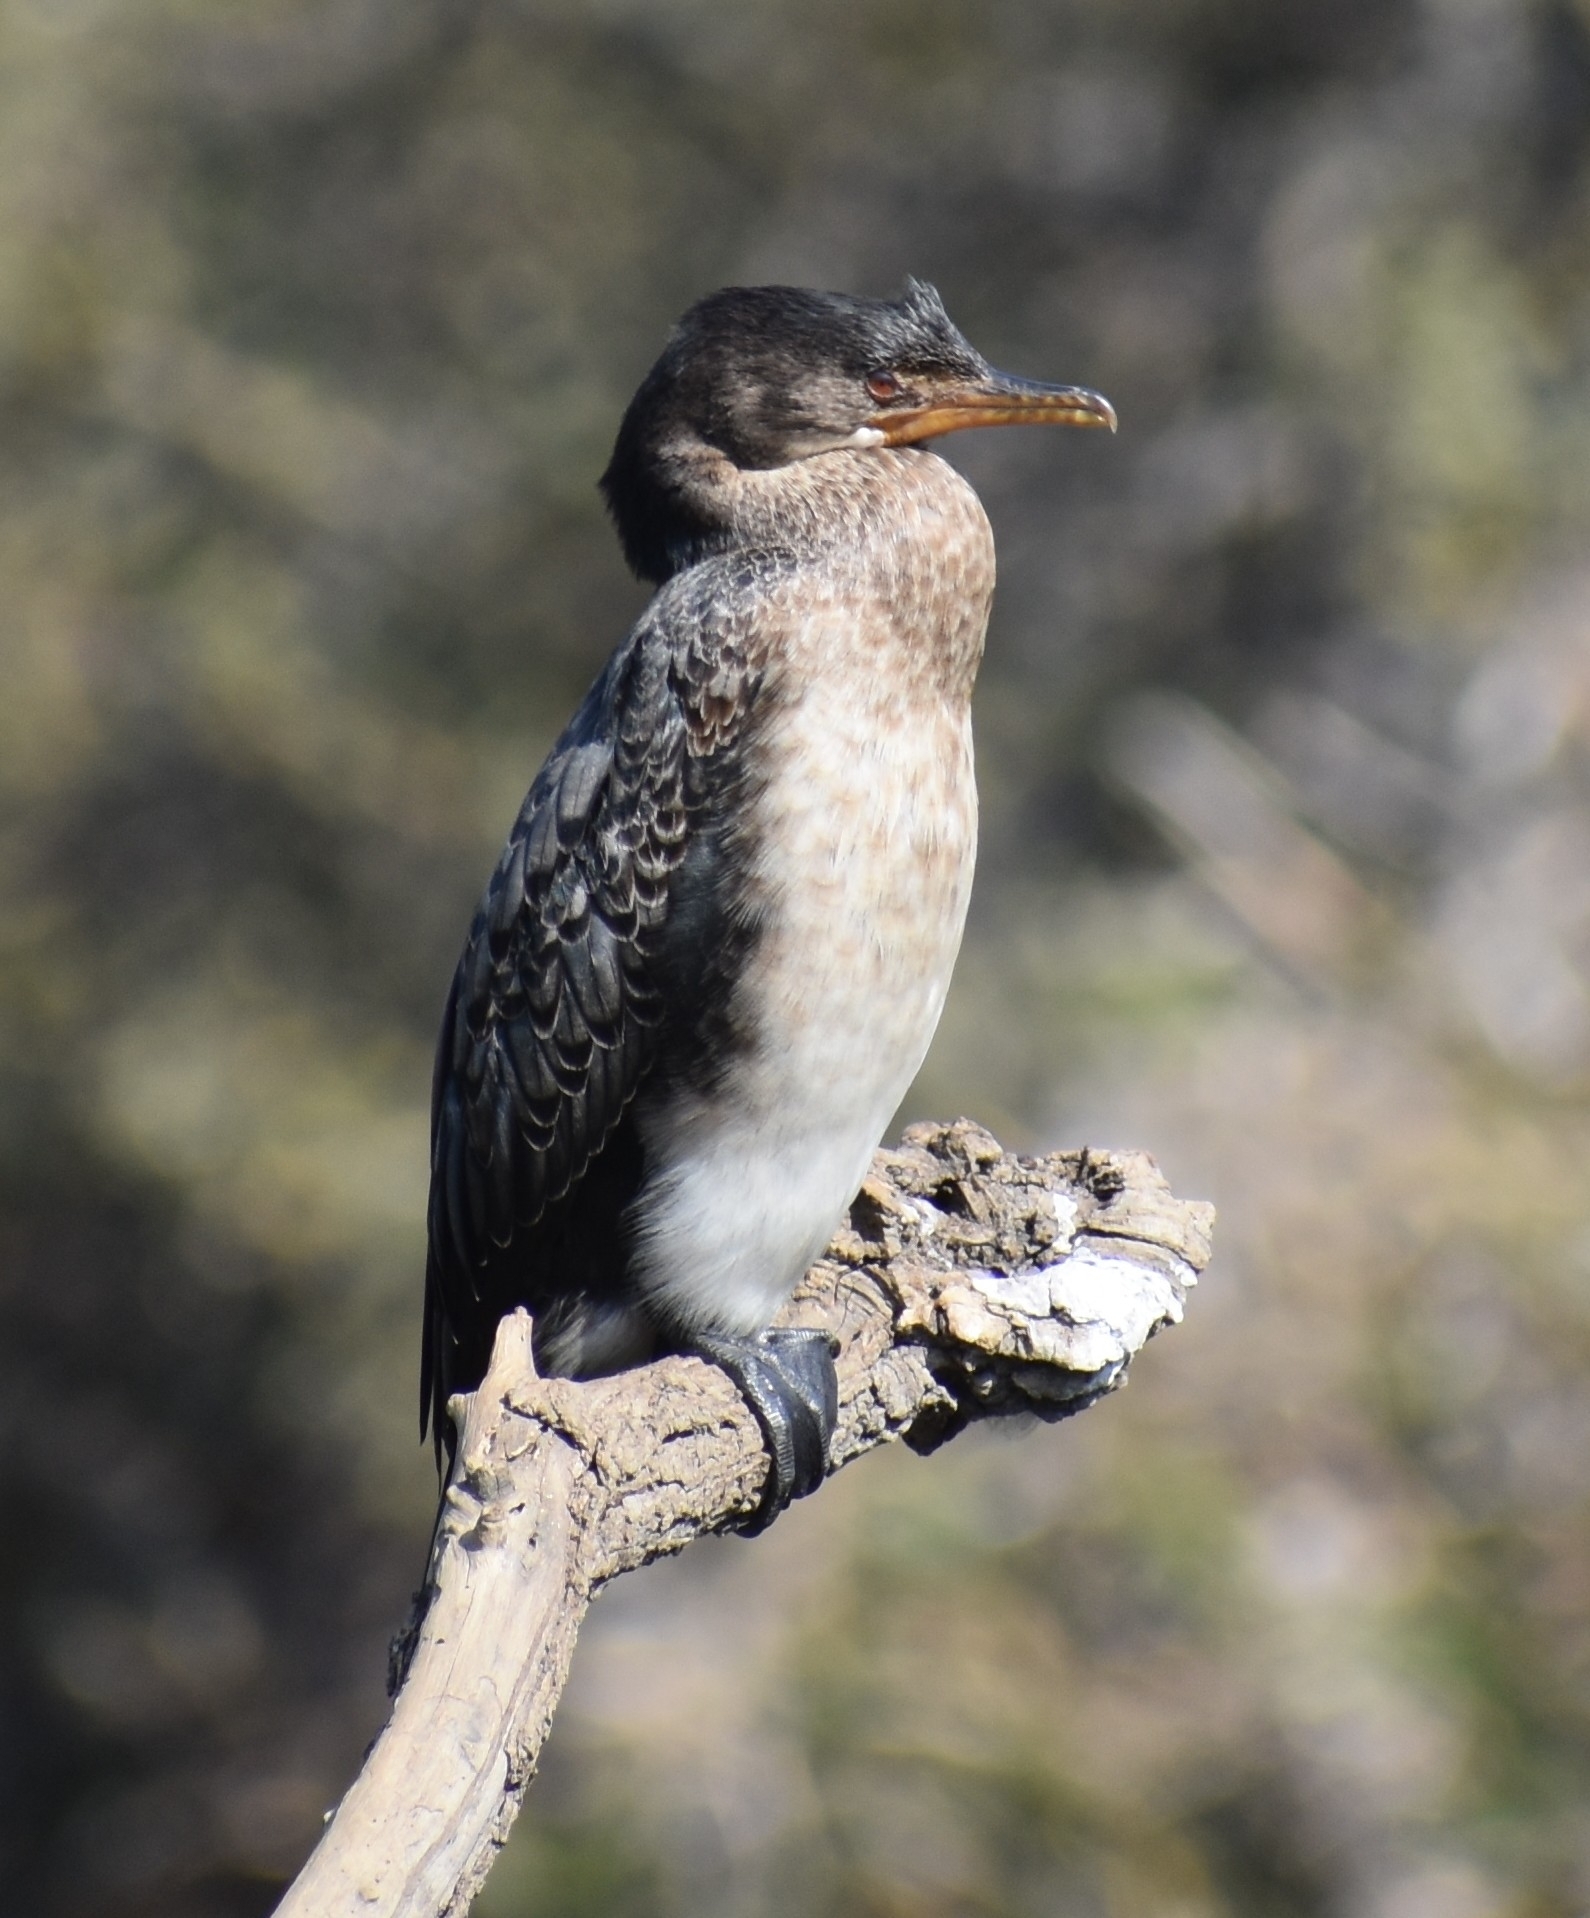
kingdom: Animalia
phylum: Chordata
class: Aves
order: Suliformes
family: Phalacrocoracidae
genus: Microcarbo
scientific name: Microcarbo africanus
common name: Long-tailed cormorant
